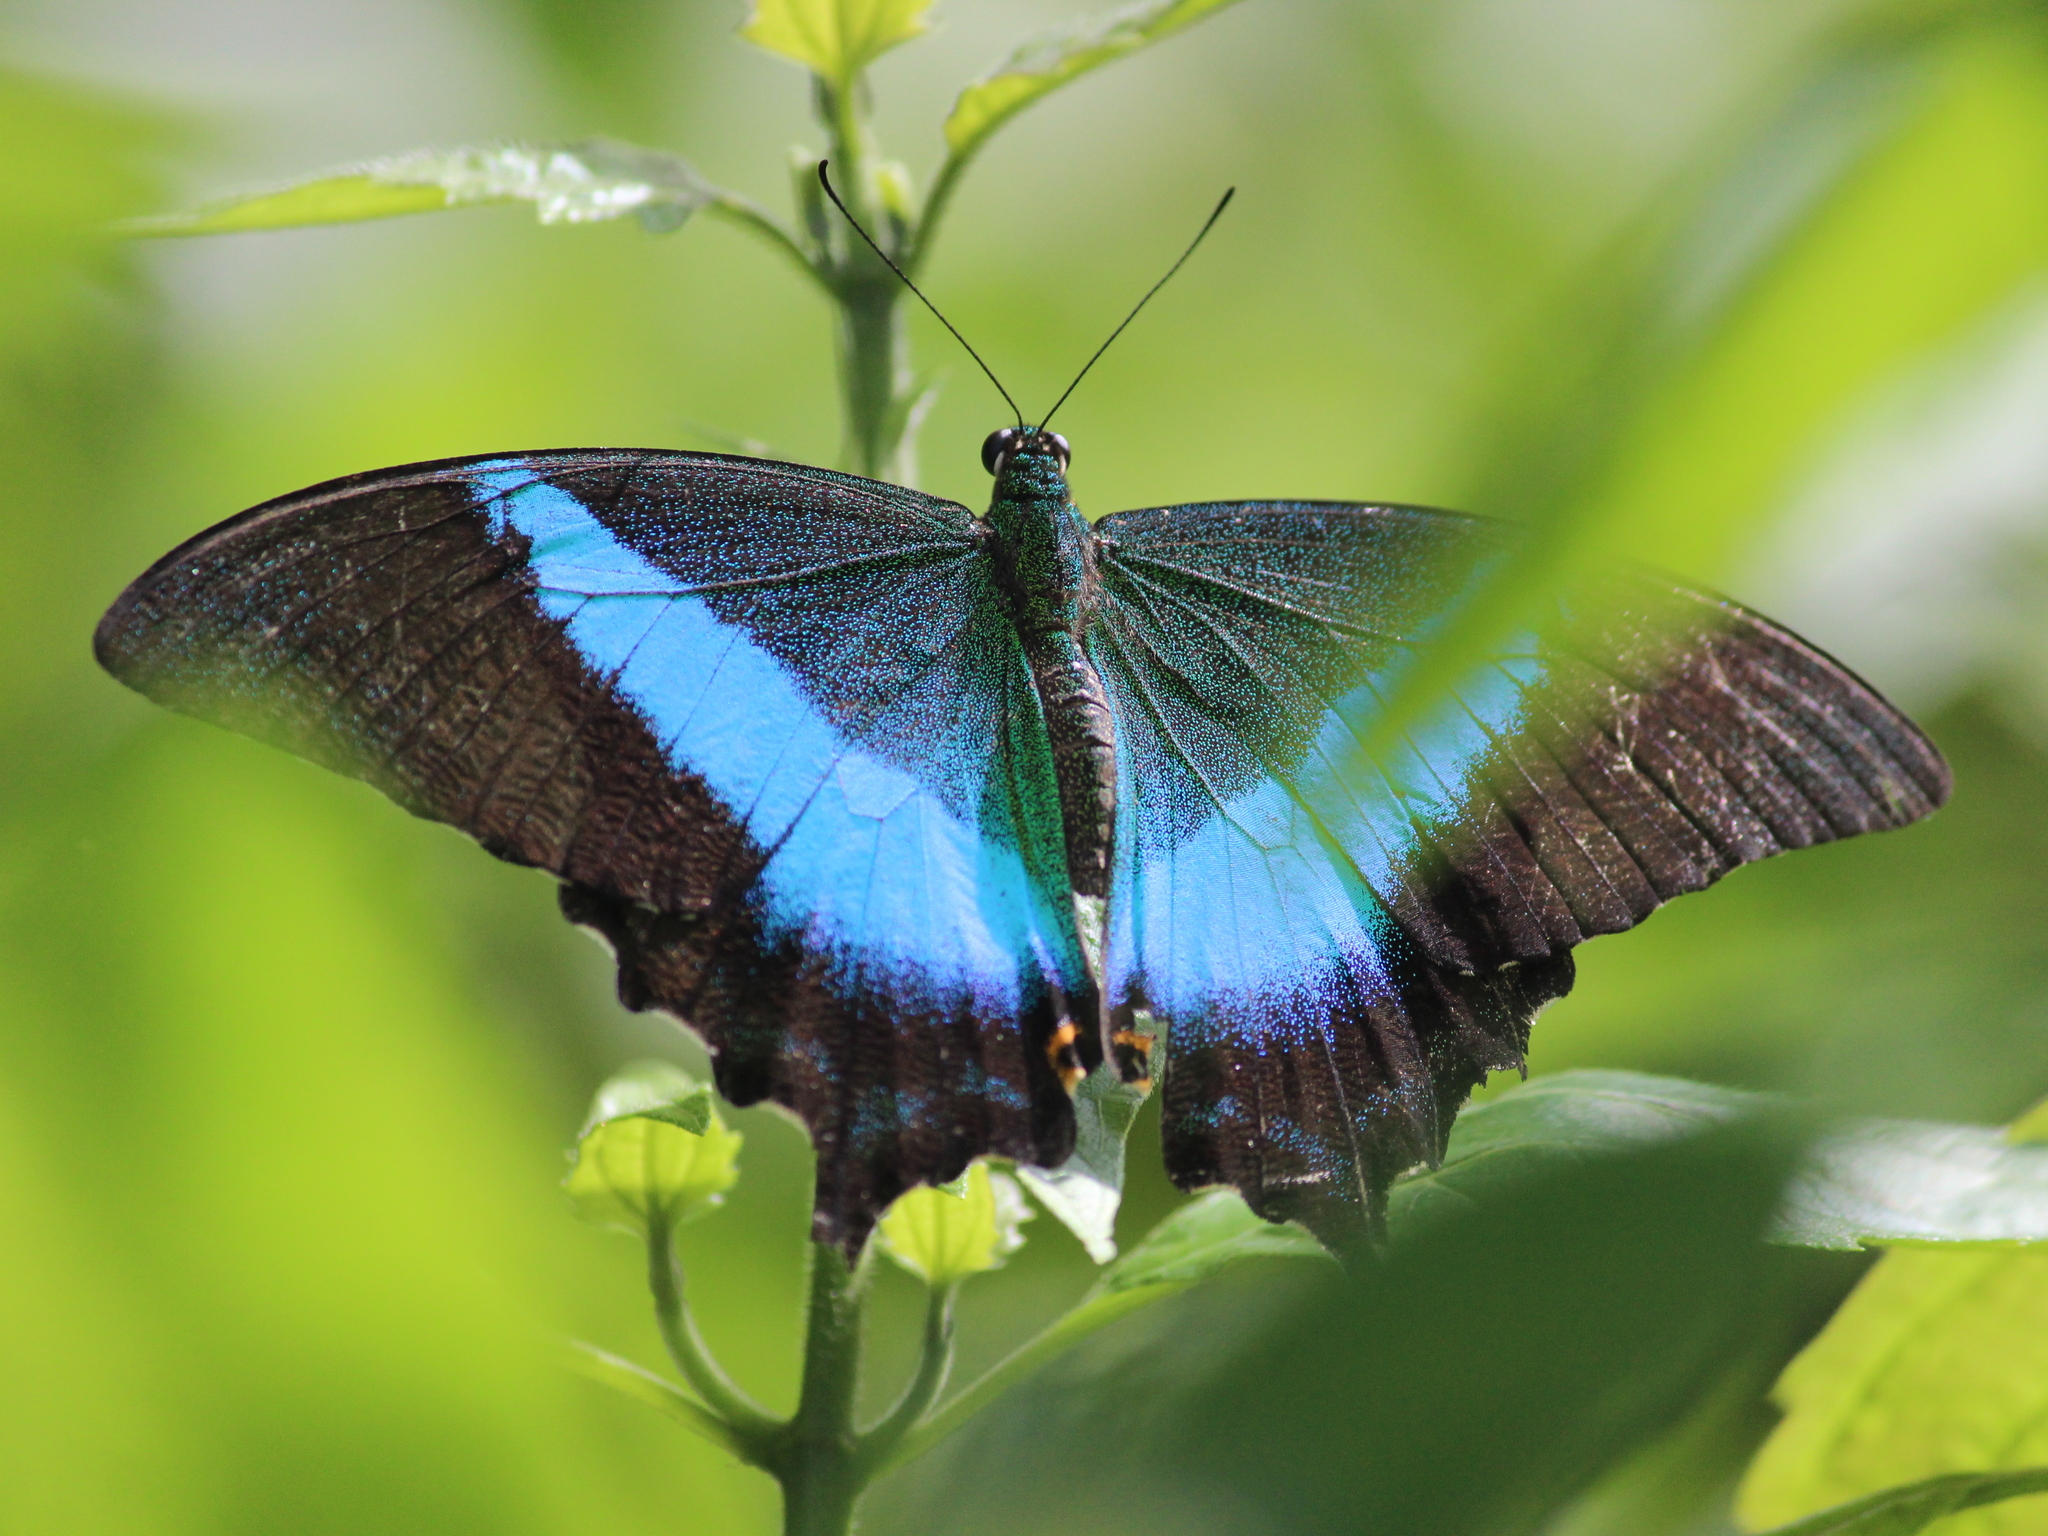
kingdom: Animalia
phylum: Arthropoda
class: Insecta
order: Lepidoptera
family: Papilionidae
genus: Papilio
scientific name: Papilio buddha
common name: Malabar banded peacock
